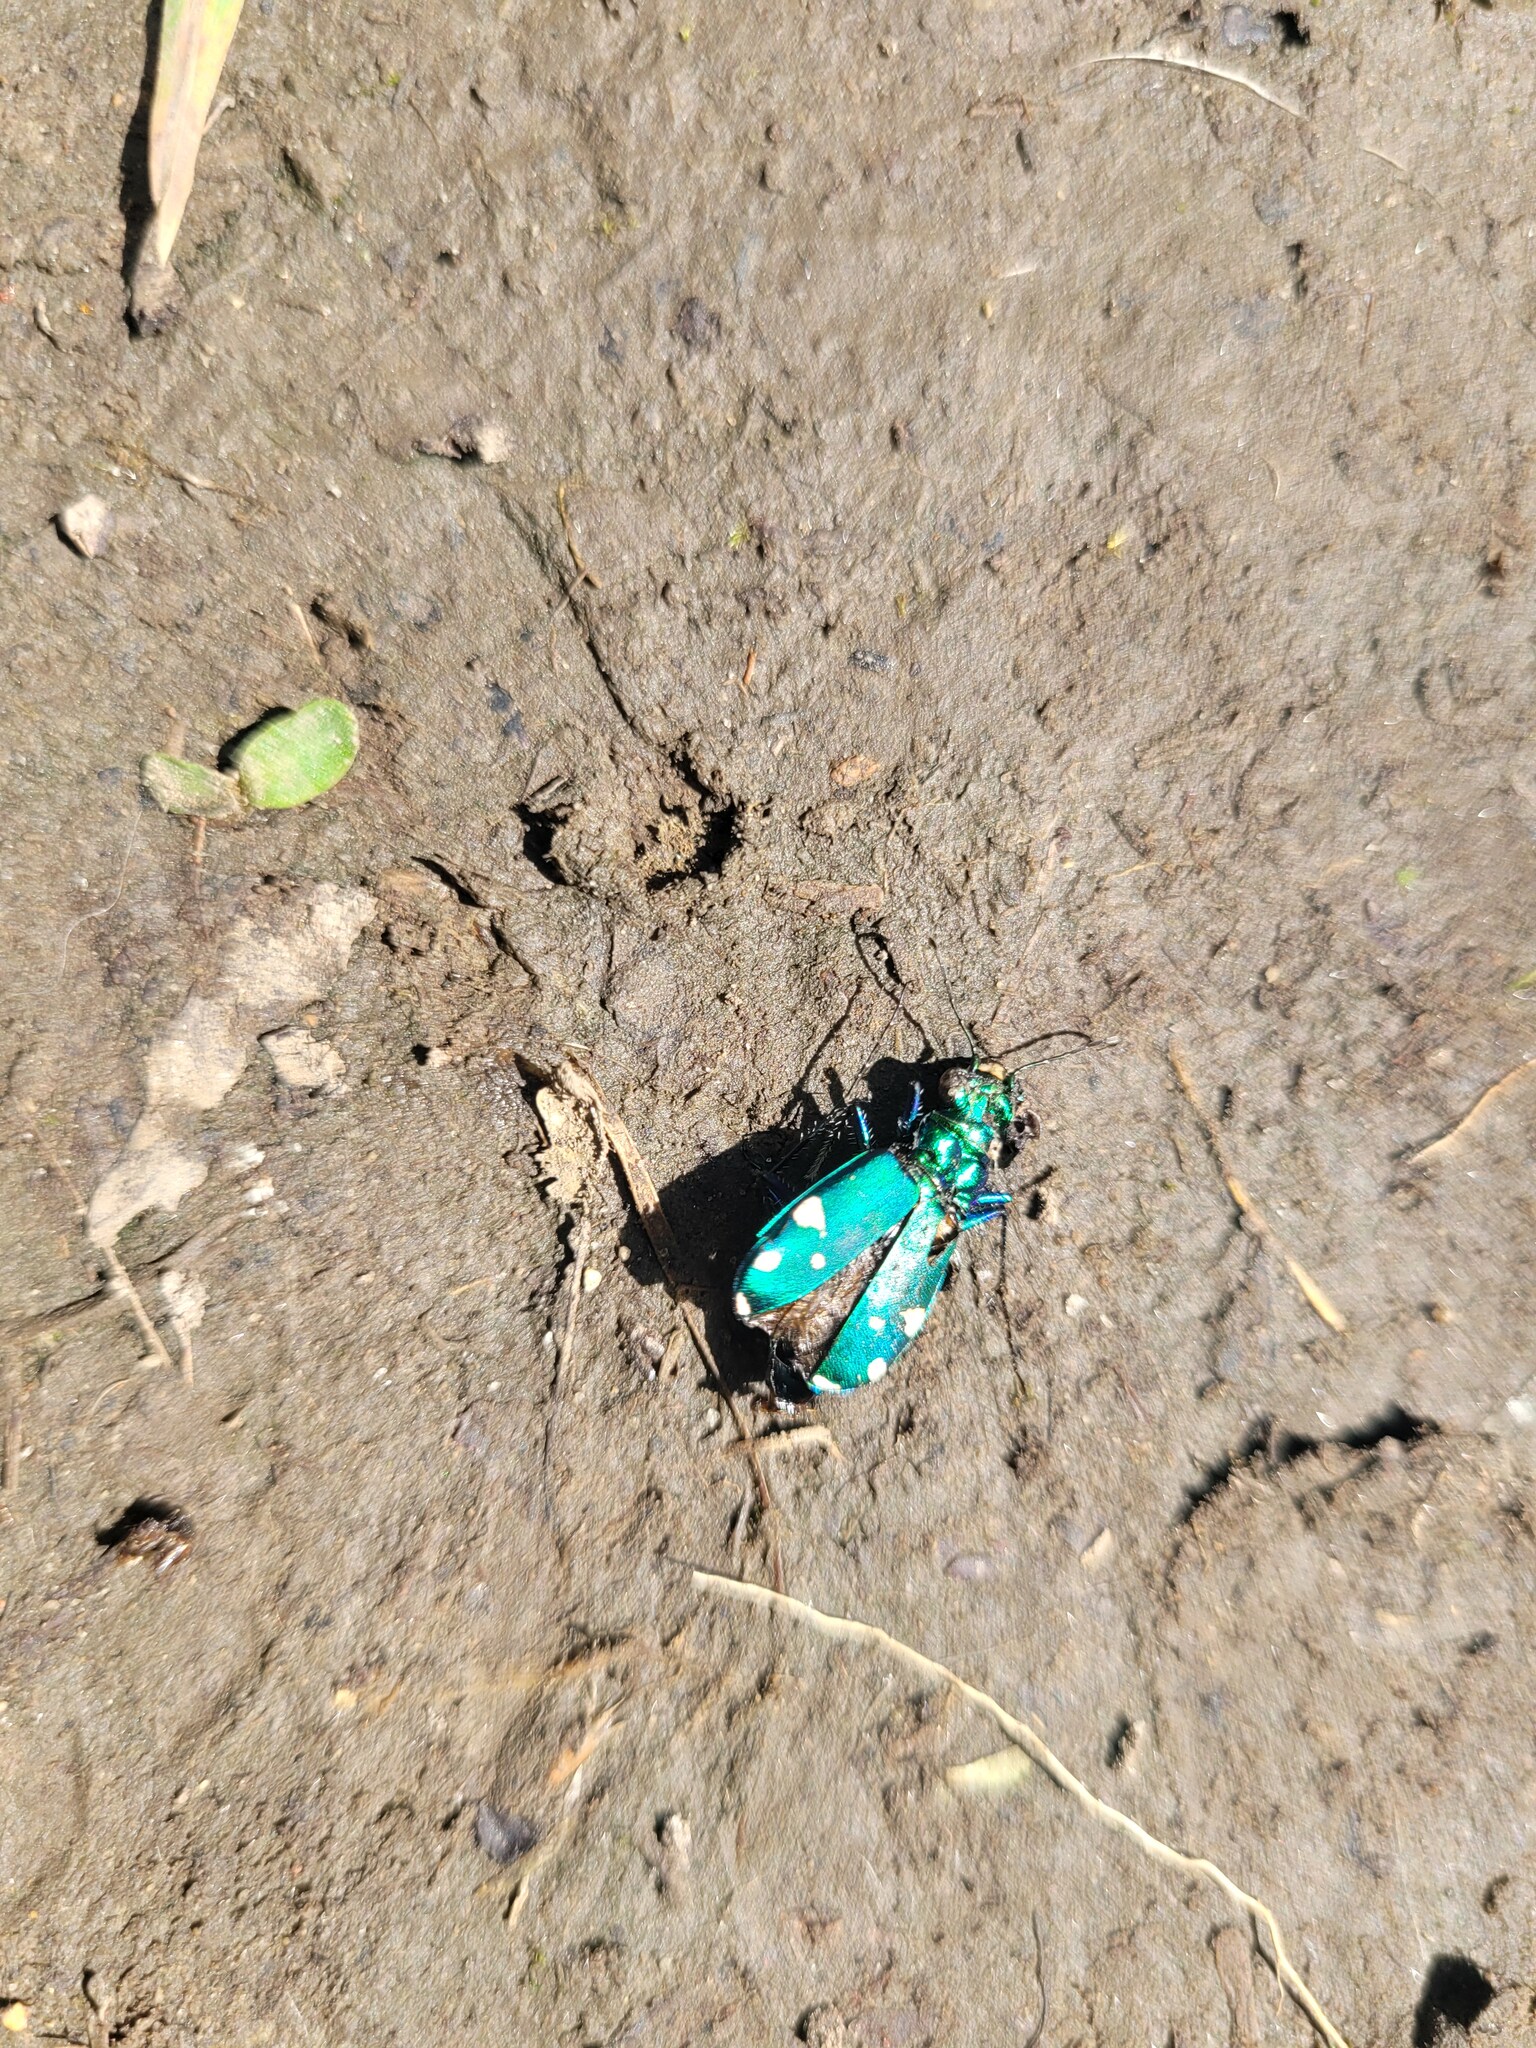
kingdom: Animalia
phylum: Arthropoda
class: Insecta
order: Coleoptera
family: Carabidae
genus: Cicindela
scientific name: Cicindela sexguttata
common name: Six-spotted tiger beetle
